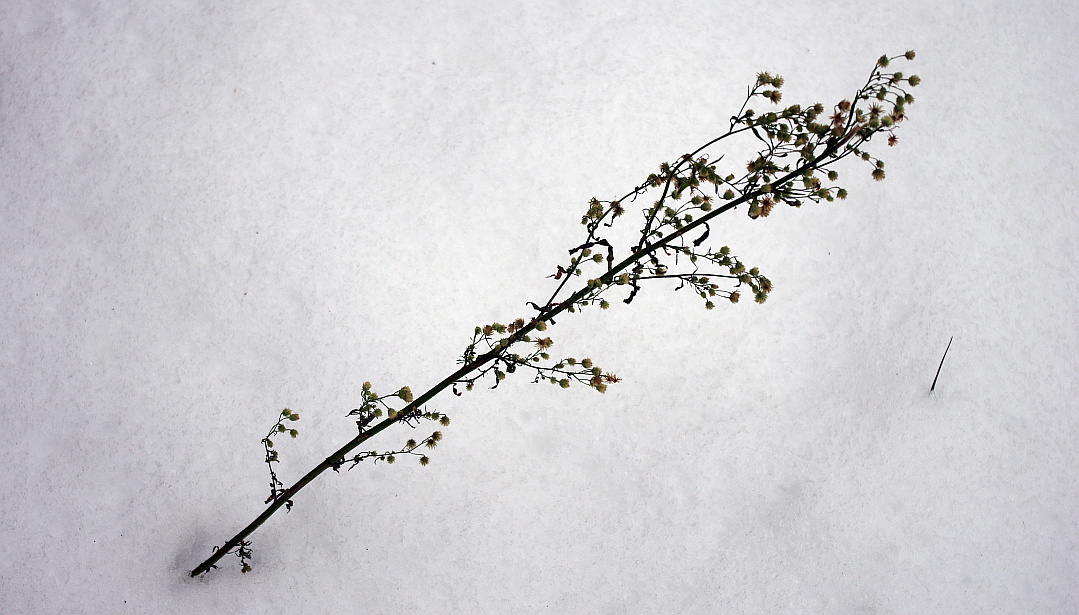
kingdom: Plantae
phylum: Tracheophyta
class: Magnoliopsida
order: Asterales
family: Asteraceae
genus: Erigeron
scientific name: Erigeron canadensis
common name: Canadian fleabane
